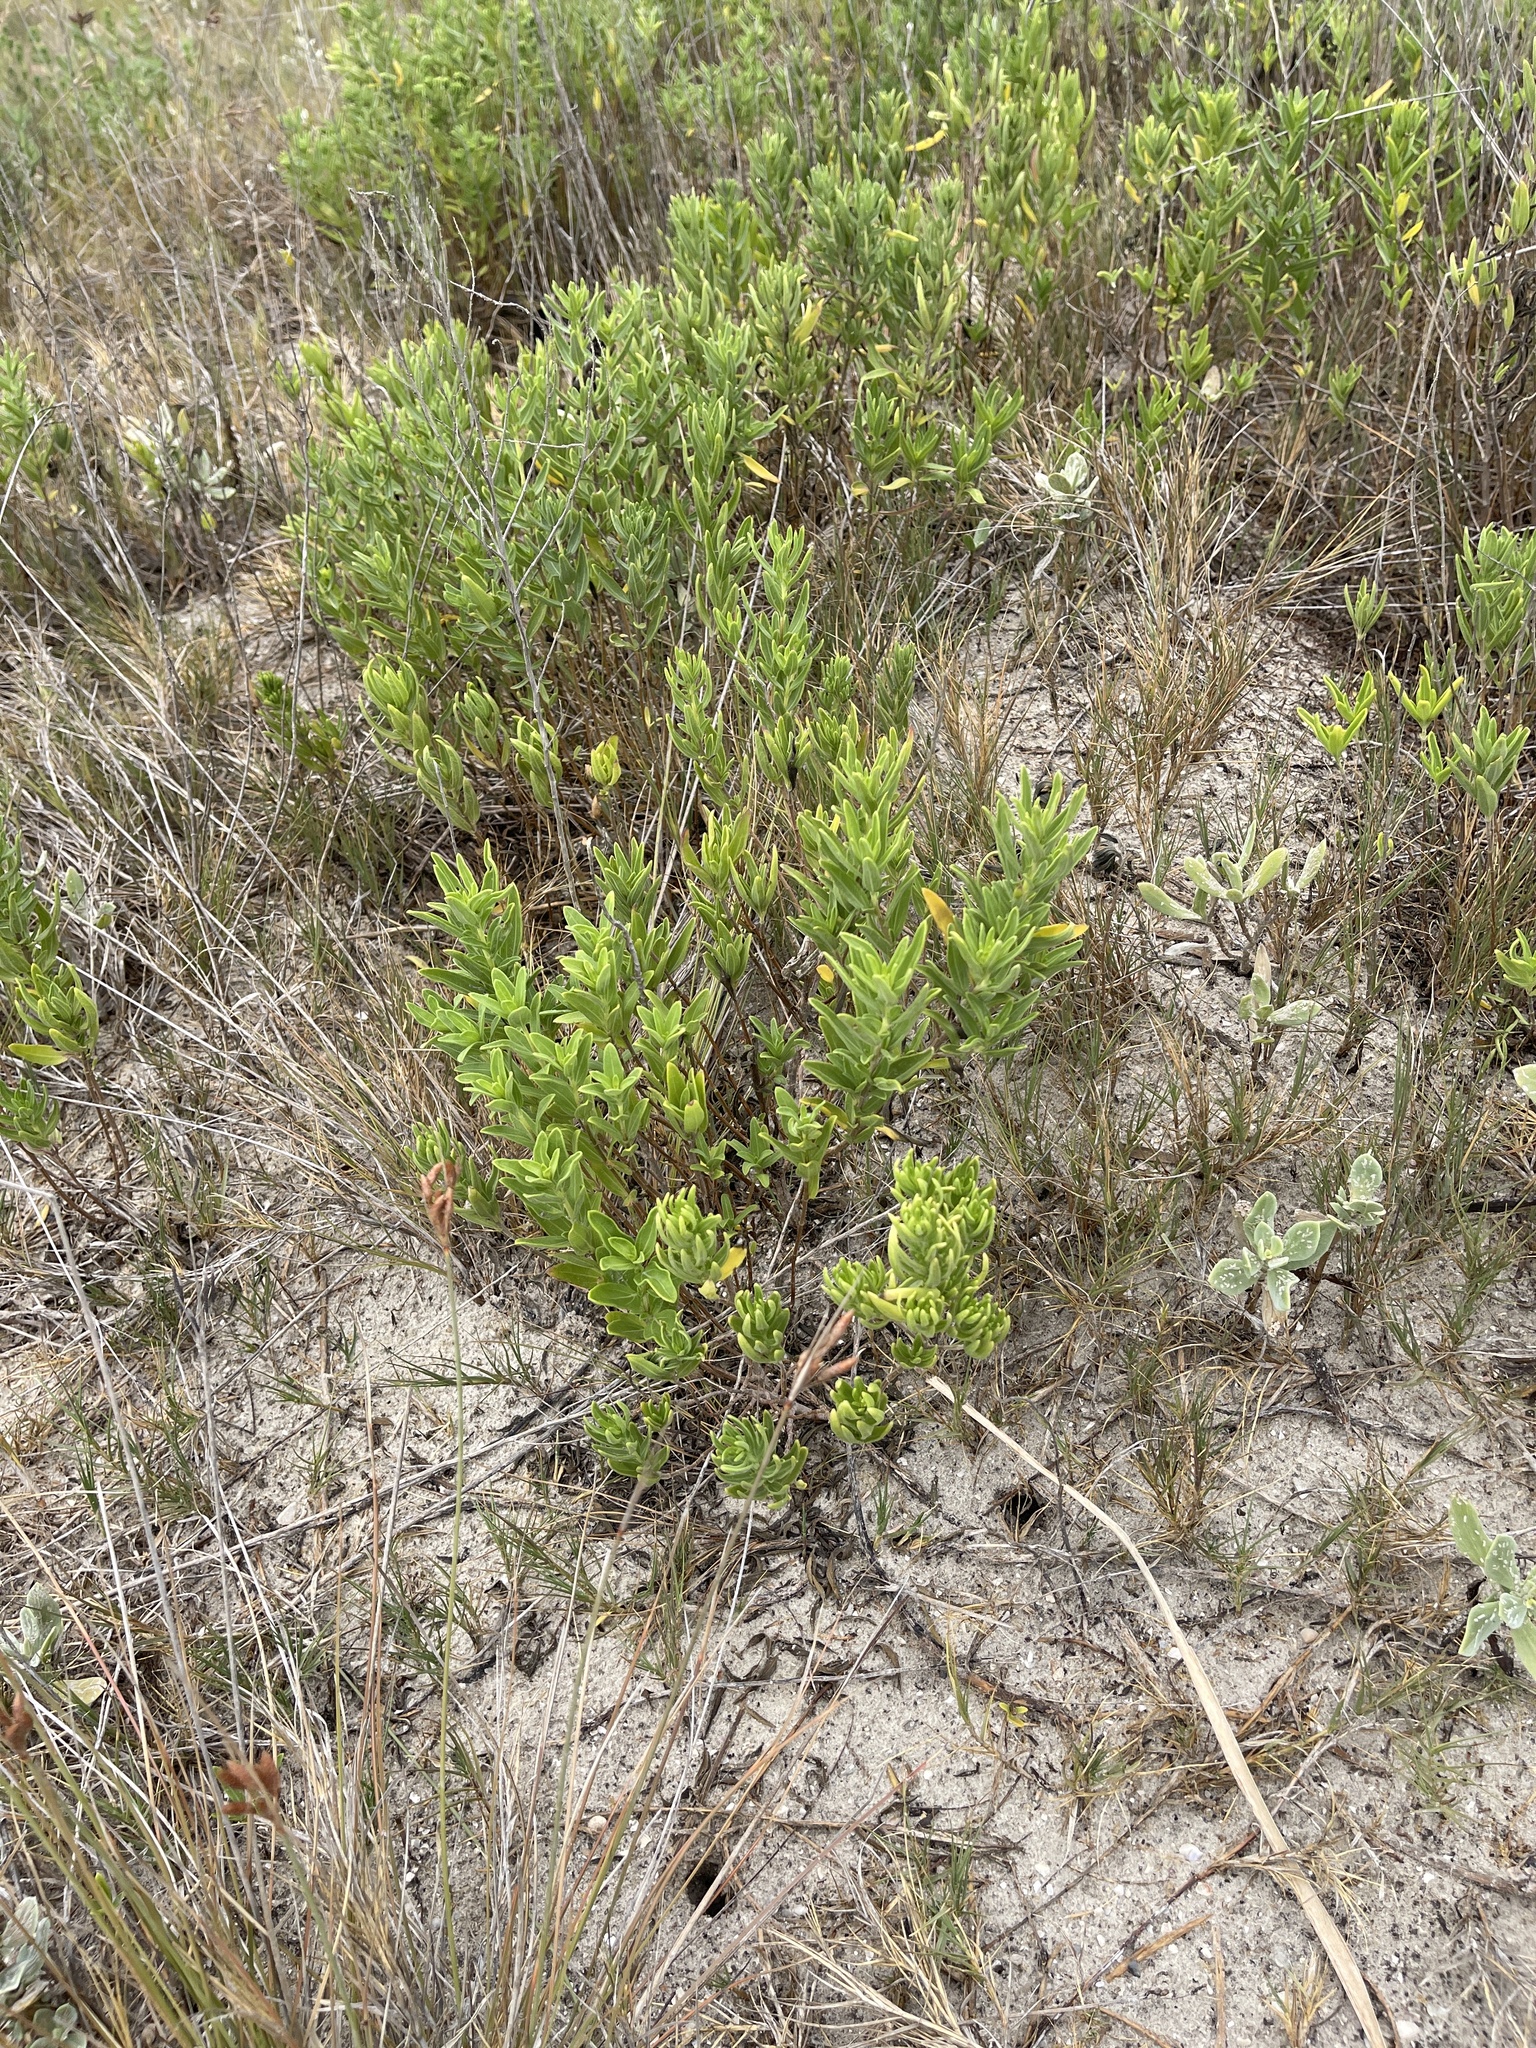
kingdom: Plantae
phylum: Tracheophyta
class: Magnoliopsida
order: Asterales
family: Asteraceae
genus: Borrichia
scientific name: Borrichia frutescens
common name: Sea oxeye
